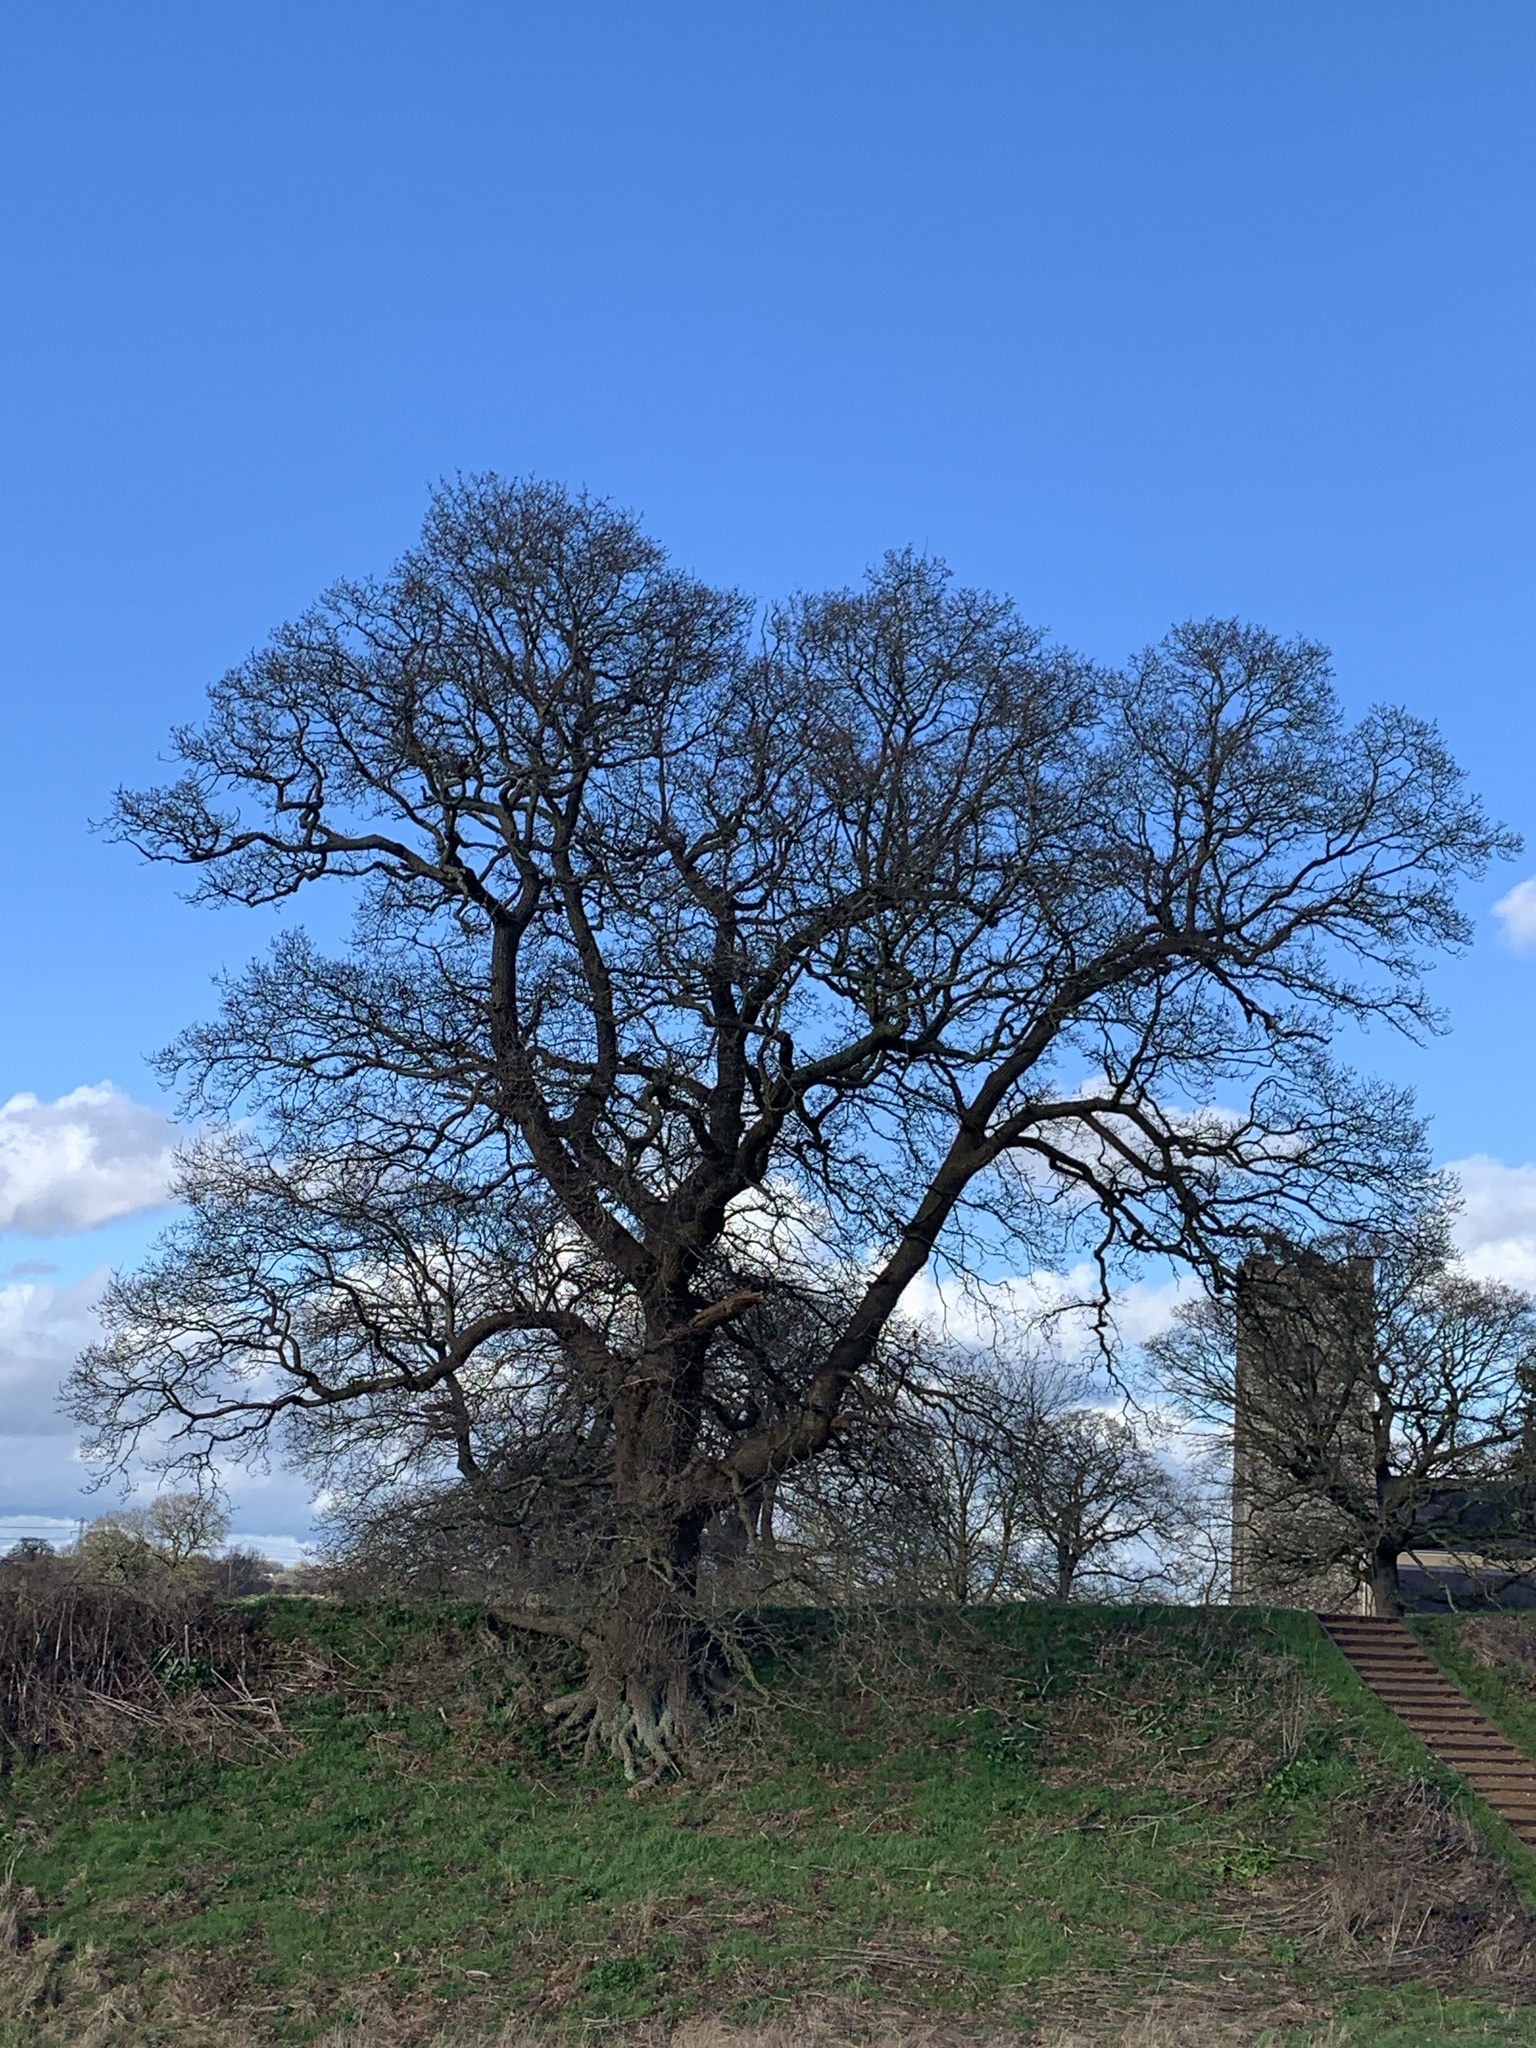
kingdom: Plantae
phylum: Tracheophyta
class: Magnoliopsida
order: Fagales
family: Fagaceae
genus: Quercus
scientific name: Quercus robur
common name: Pedunculate oak
